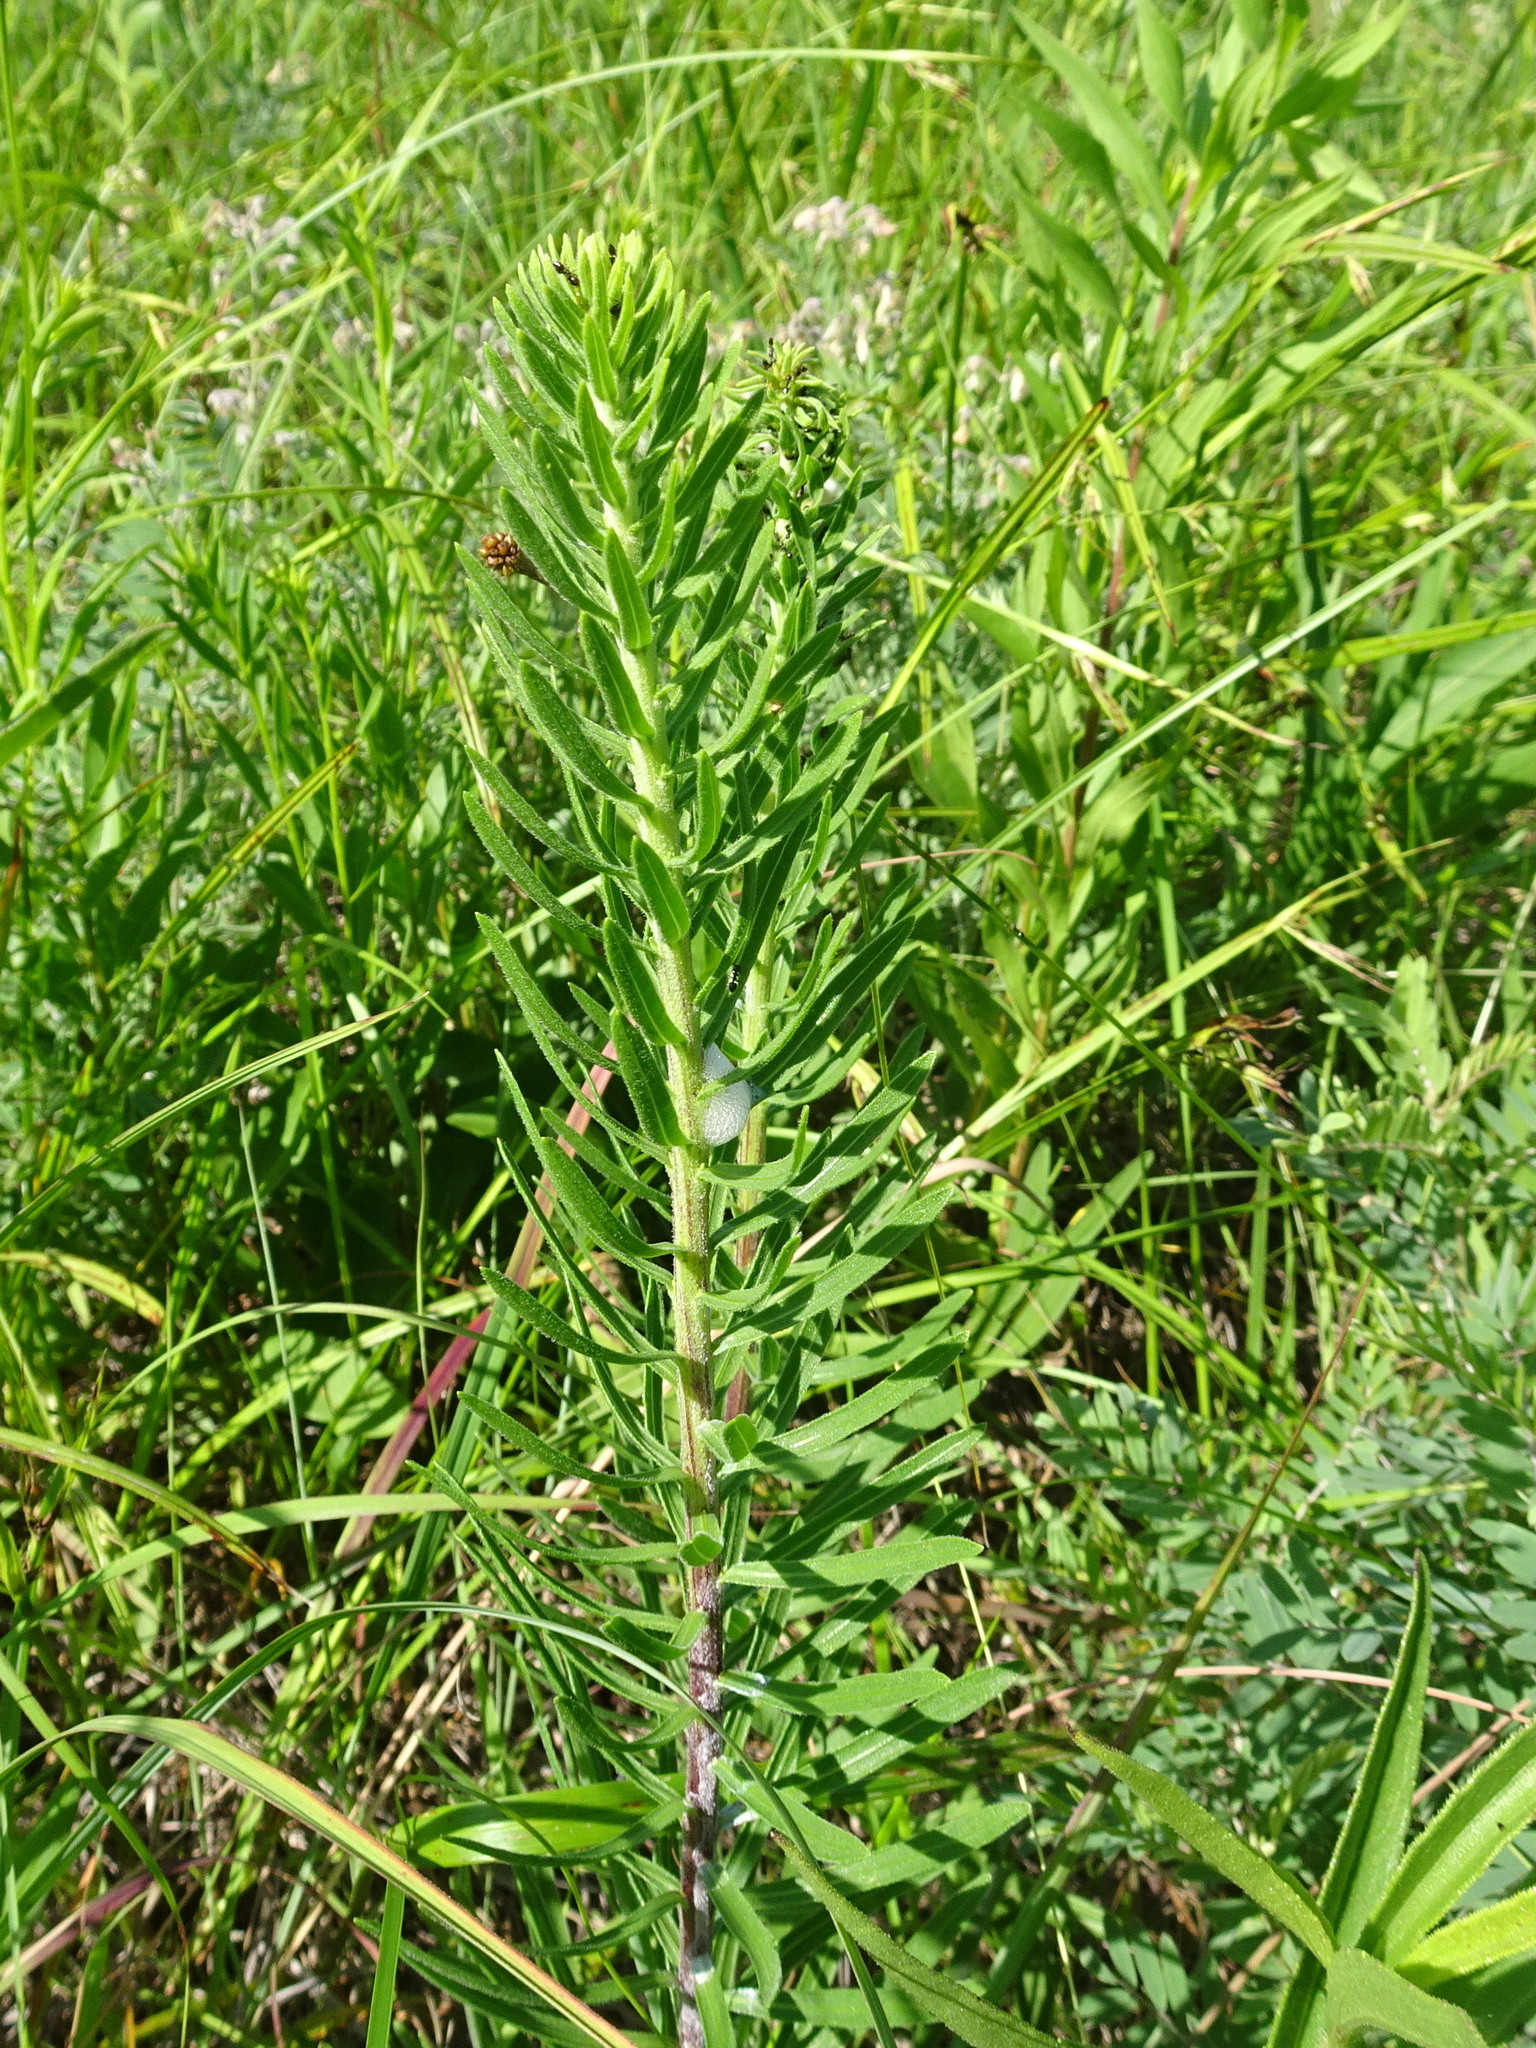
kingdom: Plantae
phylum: Tracheophyta
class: Magnoliopsida
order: Asterales
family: Asteraceae
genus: Liatris
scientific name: Liatris aspera
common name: Lacerate blazing-star
